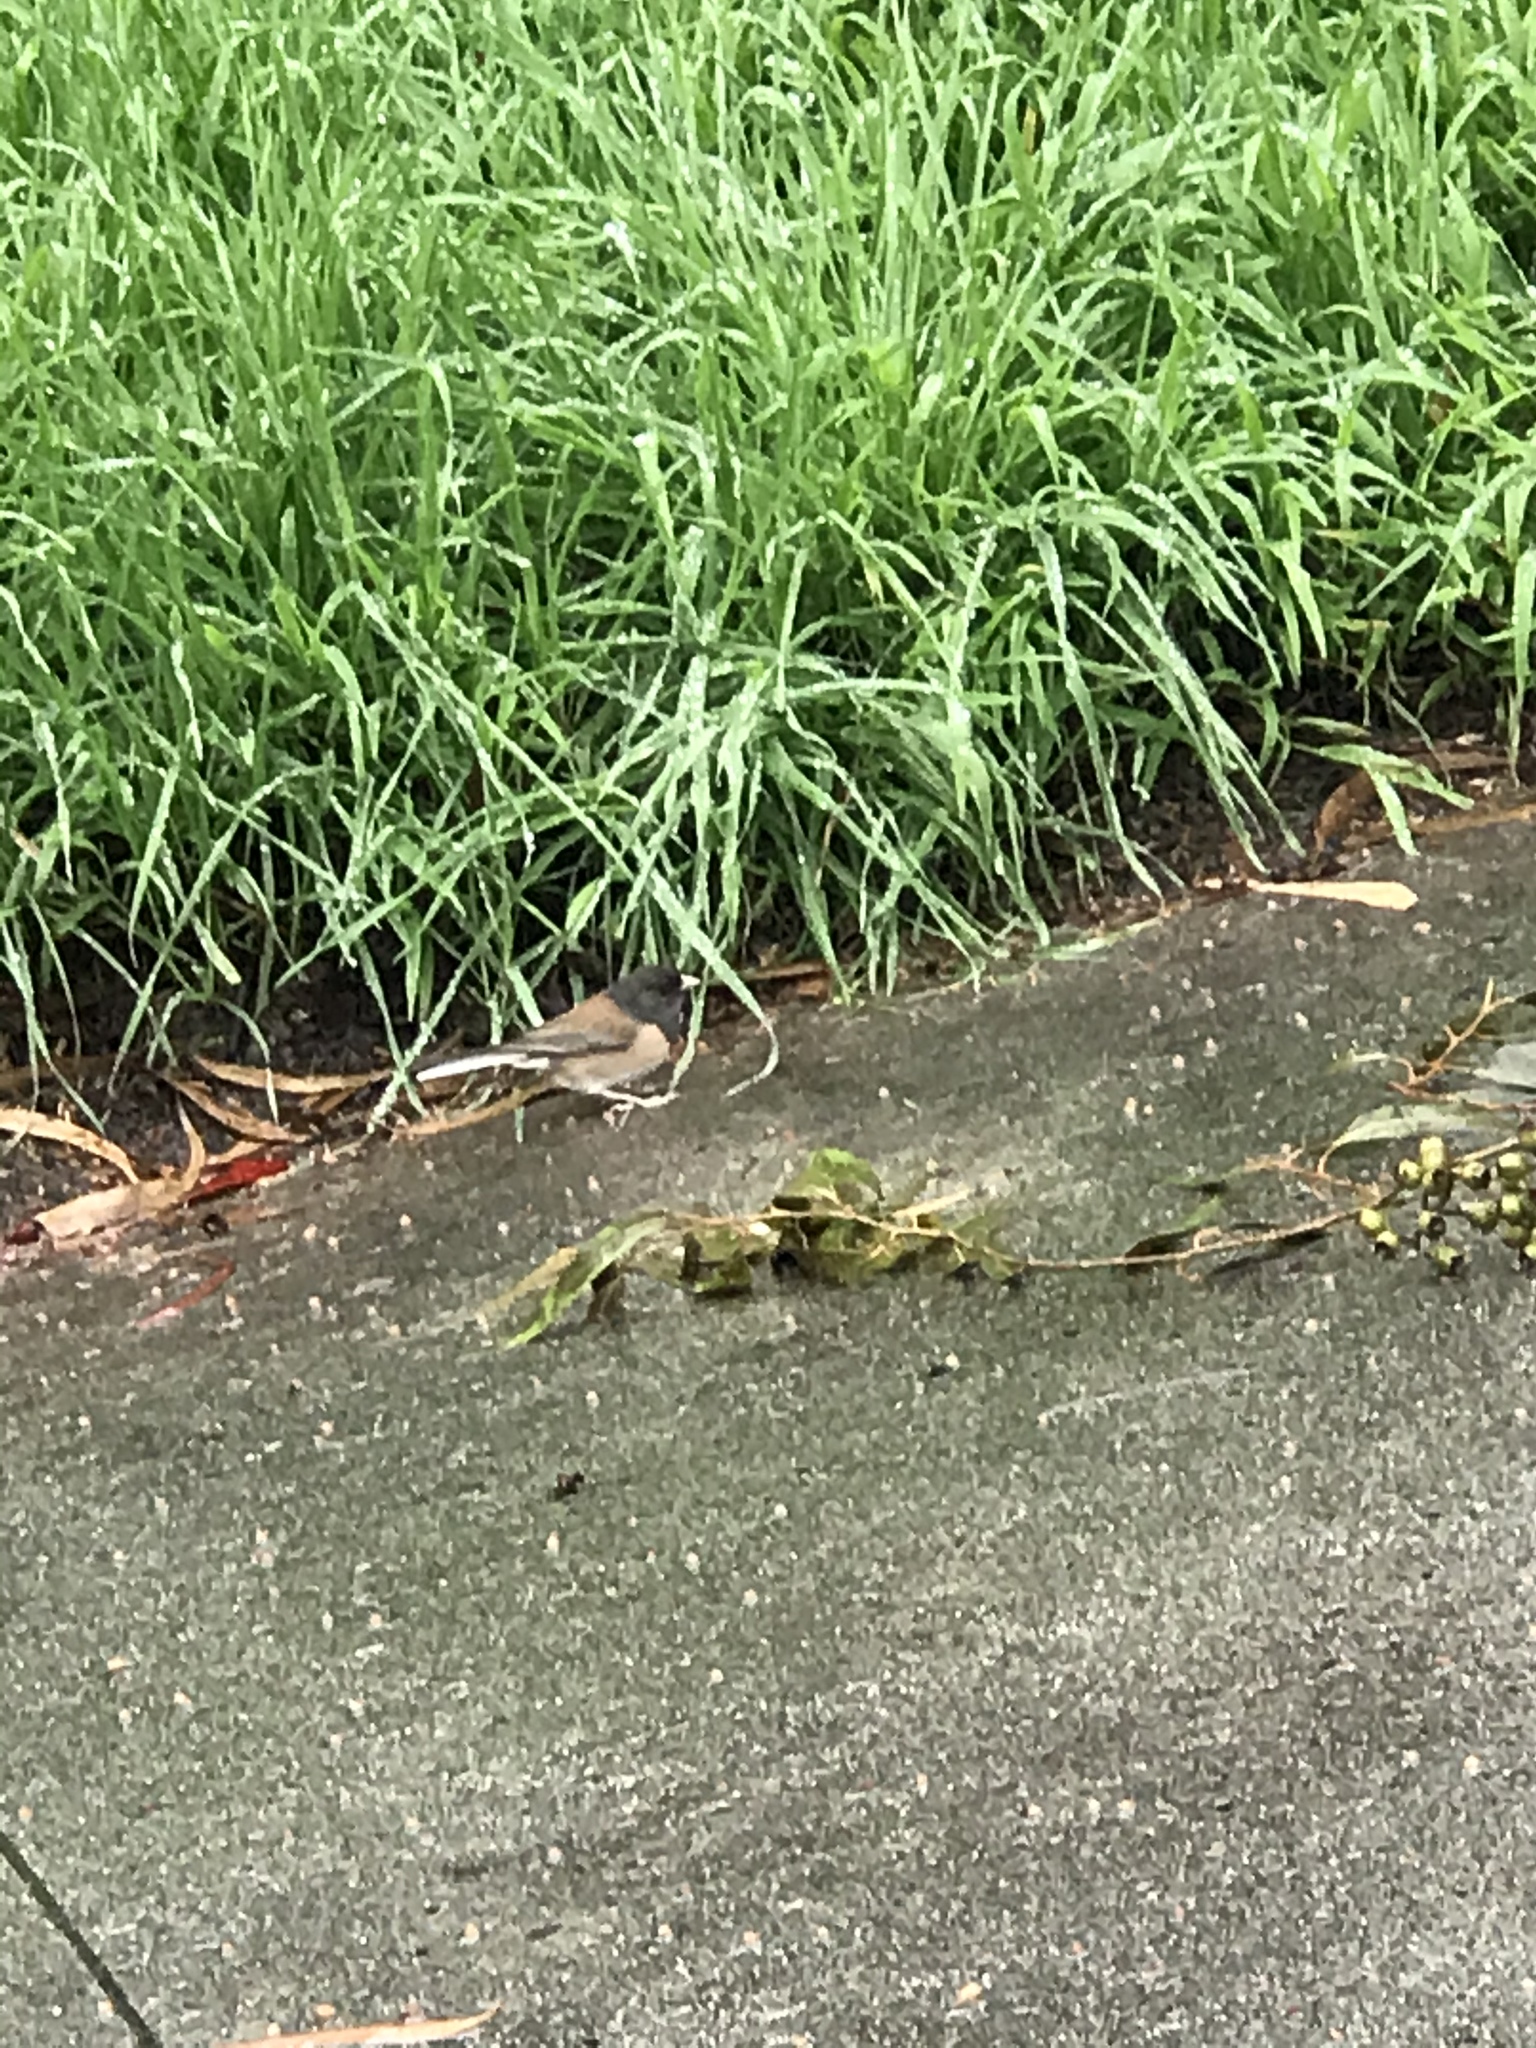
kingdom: Animalia
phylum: Chordata
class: Aves
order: Passeriformes
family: Passerellidae
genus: Junco
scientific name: Junco hyemalis
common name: Dark-eyed junco
